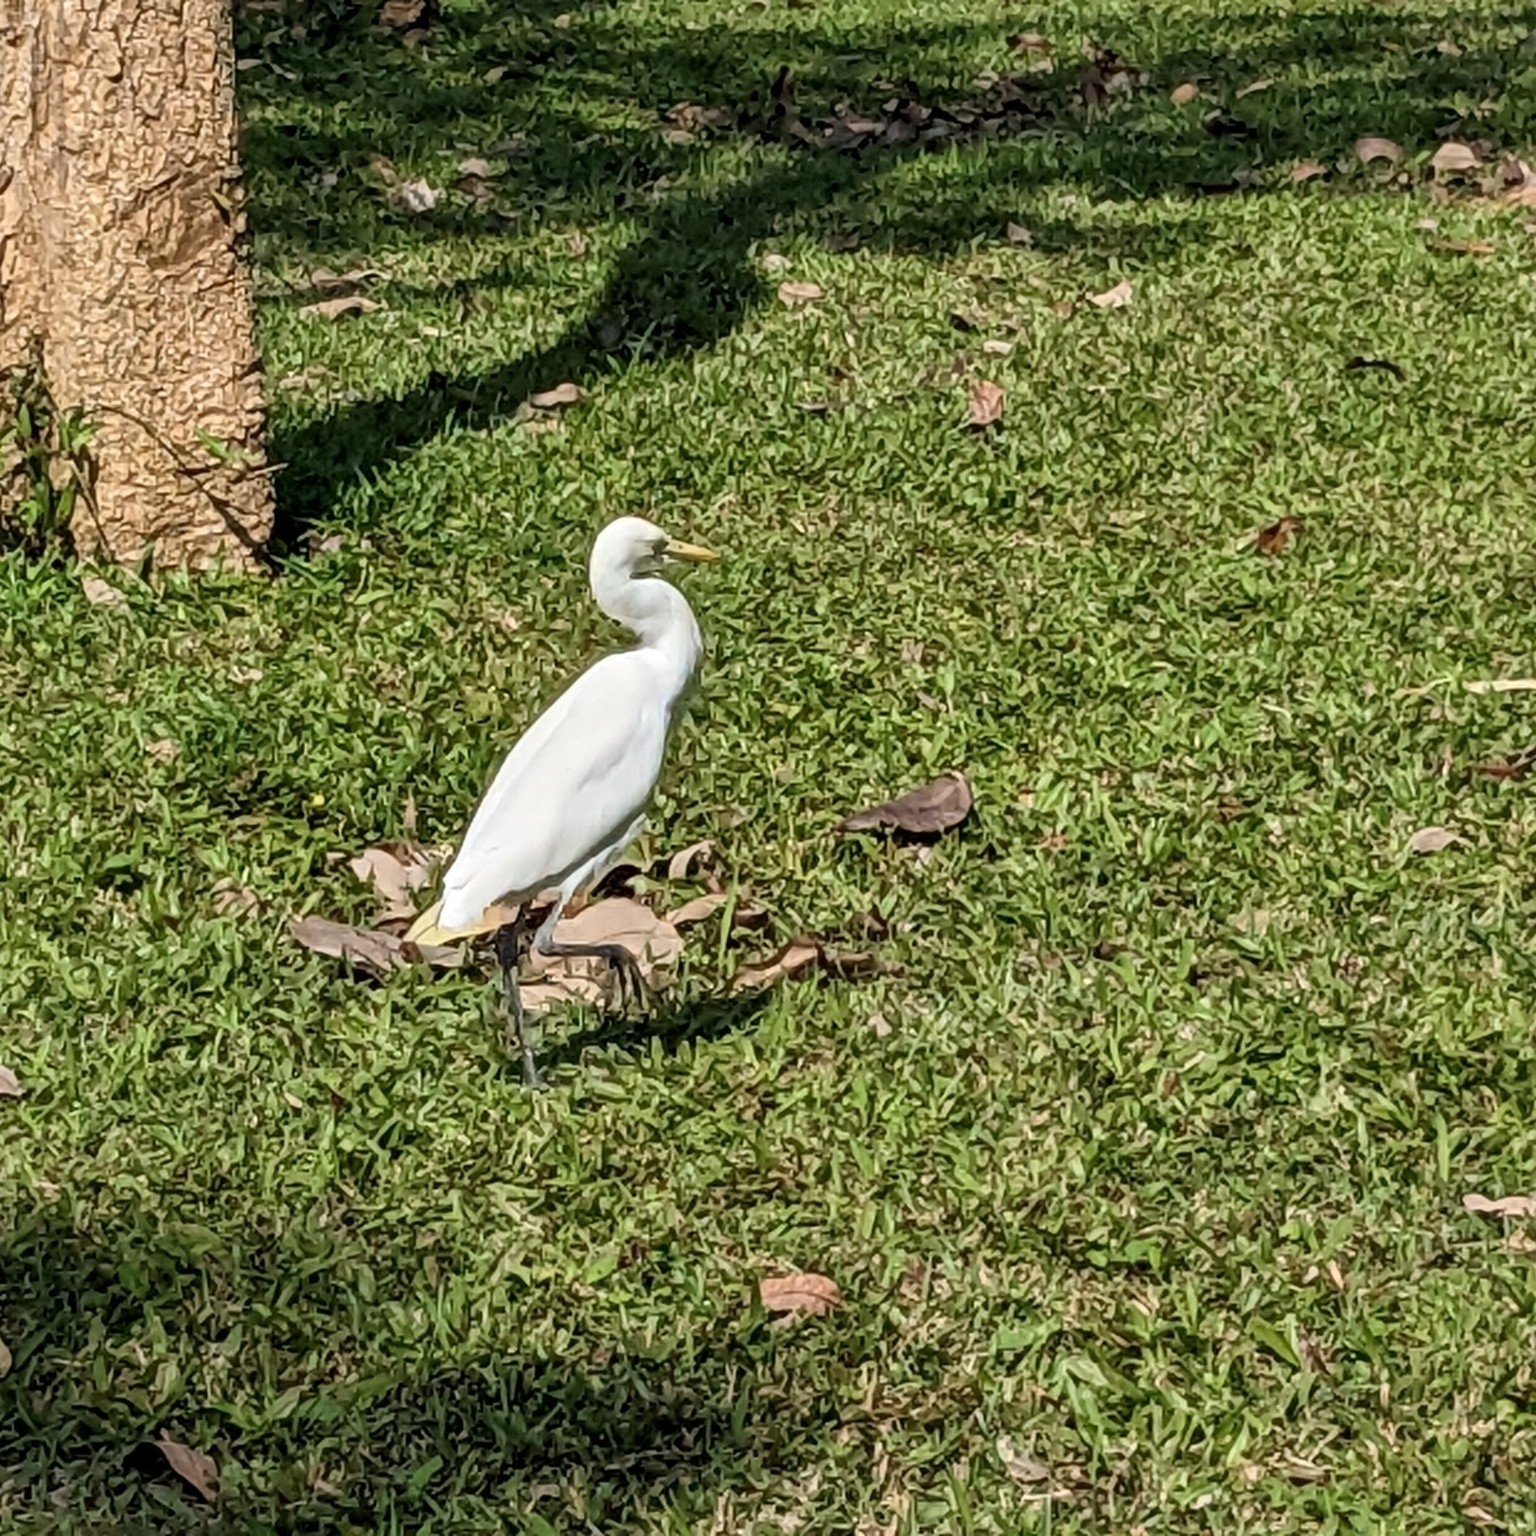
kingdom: Animalia
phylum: Chordata
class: Aves
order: Pelecaniformes
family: Ardeidae
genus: Bubulcus
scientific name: Bubulcus coromandus
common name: Eastern cattle egret
